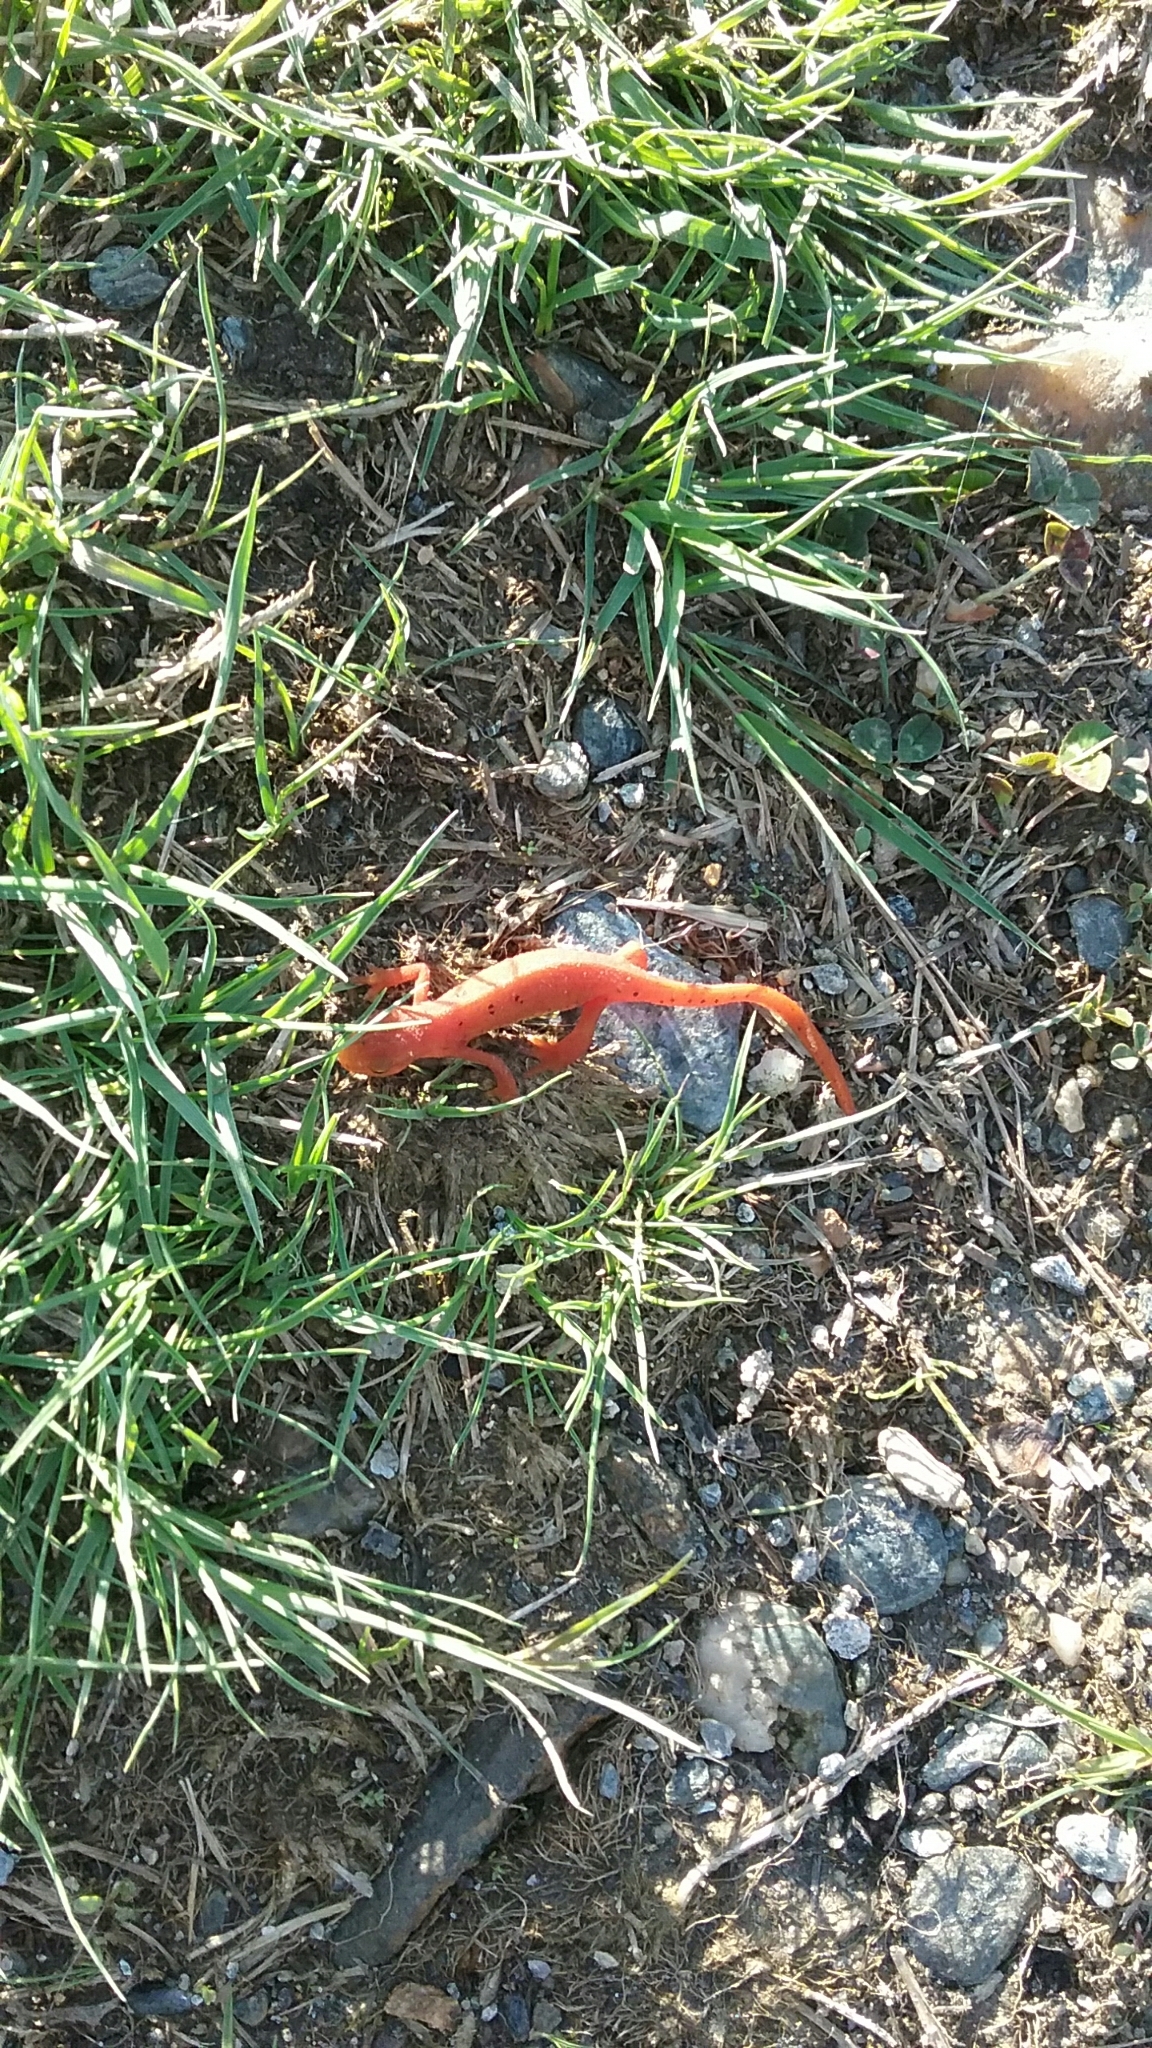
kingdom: Animalia
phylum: Chordata
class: Amphibia
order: Caudata
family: Salamandridae
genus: Notophthalmus
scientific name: Notophthalmus viridescens
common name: Eastern newt
